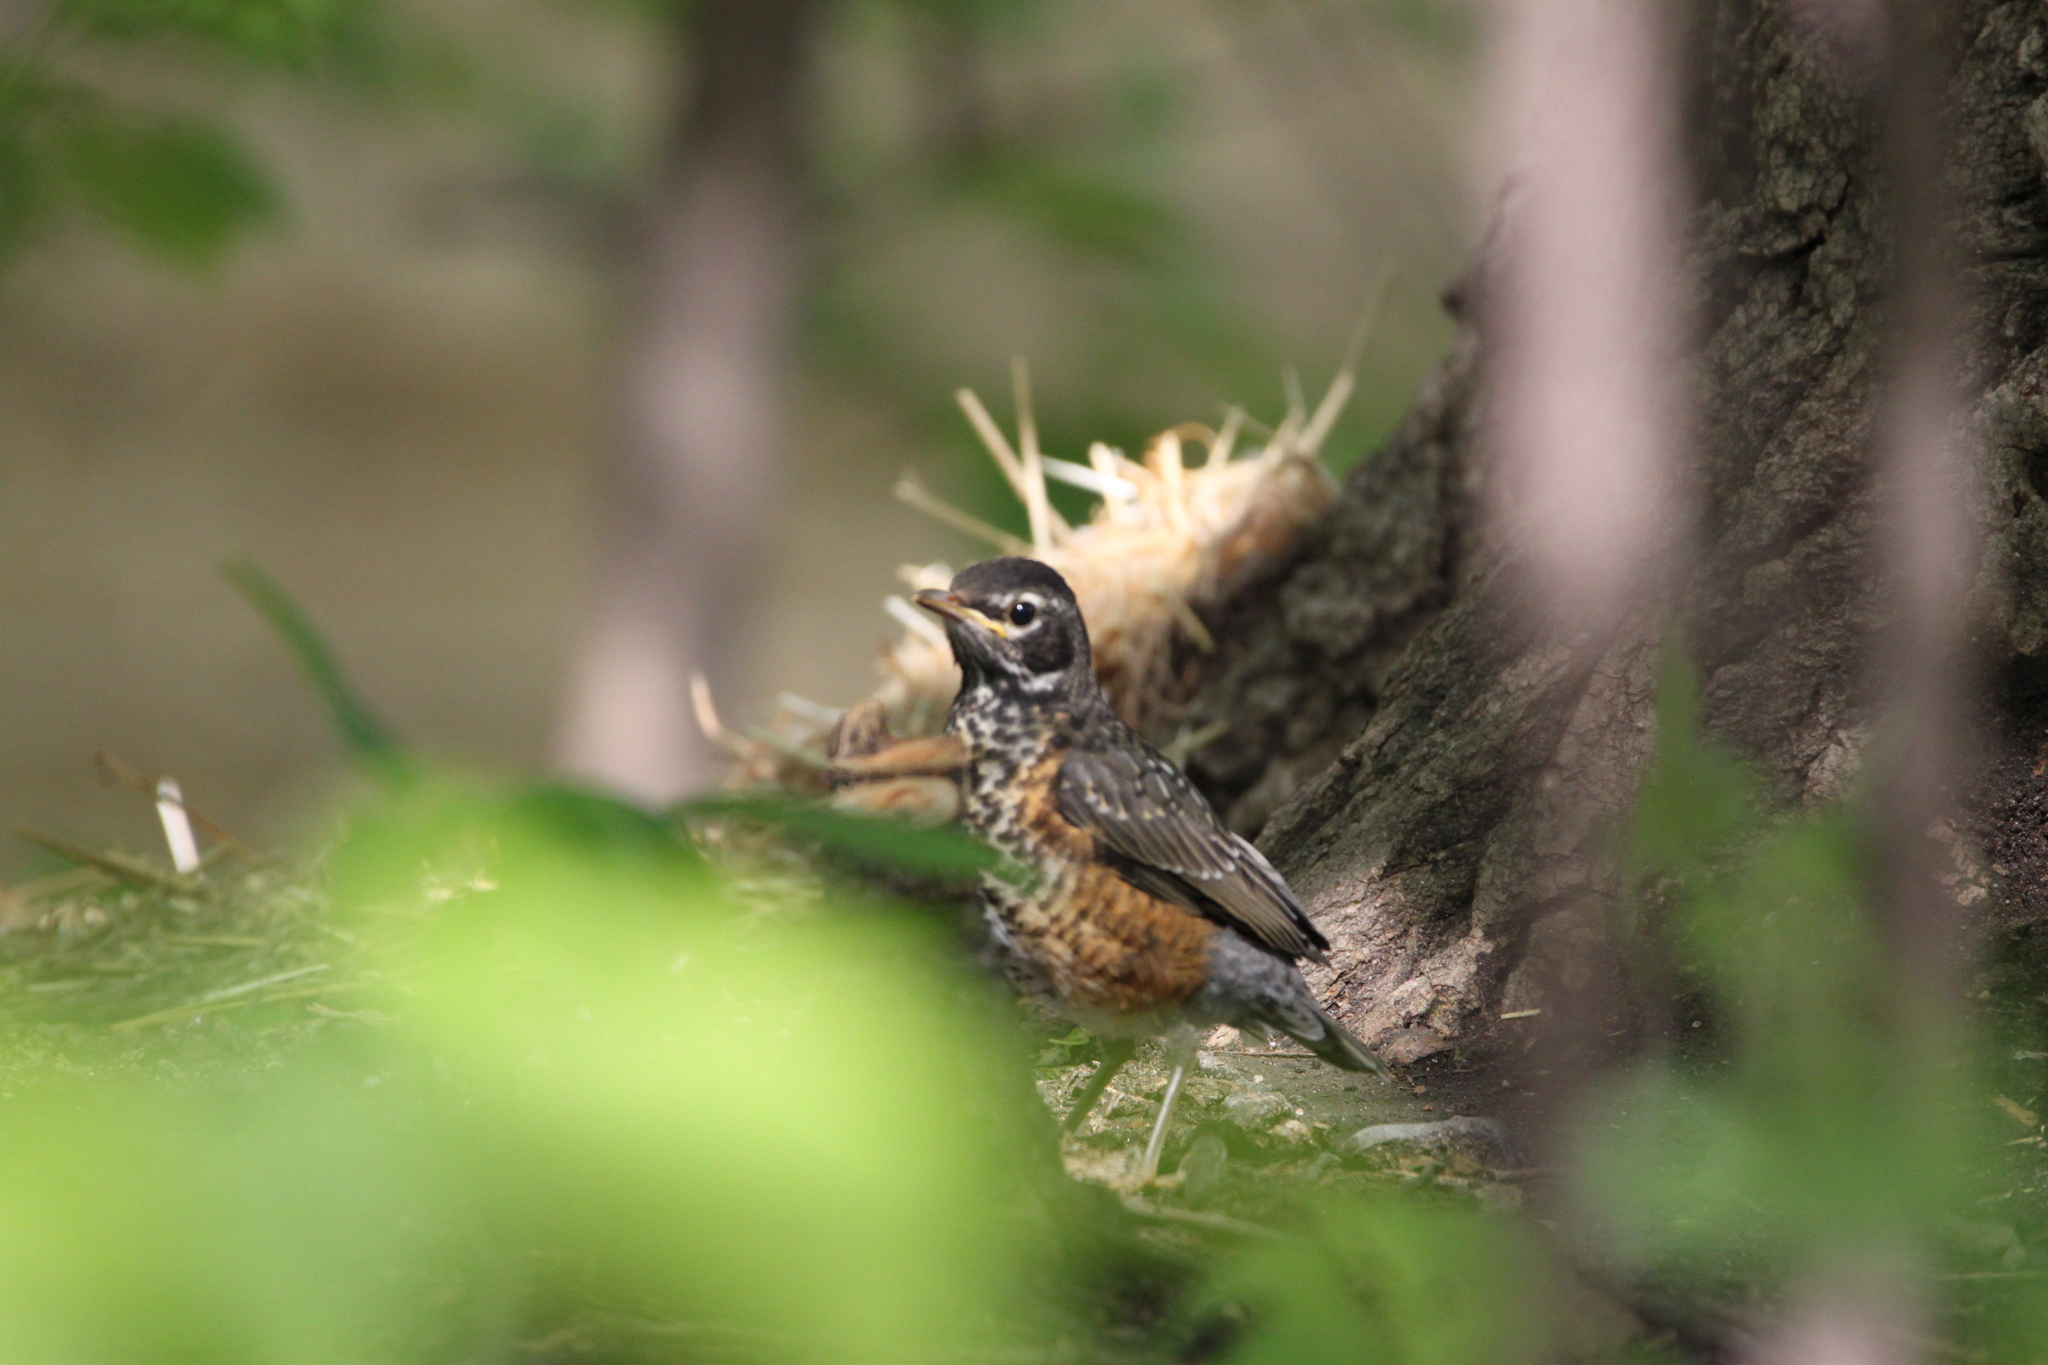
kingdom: Animalia
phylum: Chordata
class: Aves
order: Passeriformes
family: Turdidae
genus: Turdus
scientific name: Turdus migratorius
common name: American robin
